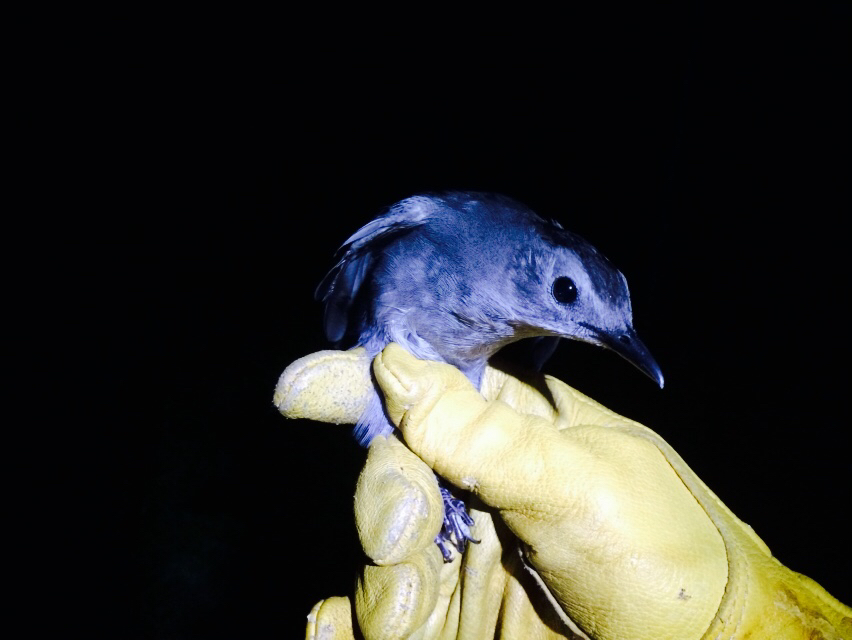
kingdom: Animalia
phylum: Chordata
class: Aves
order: Passeriformes
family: Mimidae
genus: Dumetella
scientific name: Dumetella carolinensis
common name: Gray catbird
